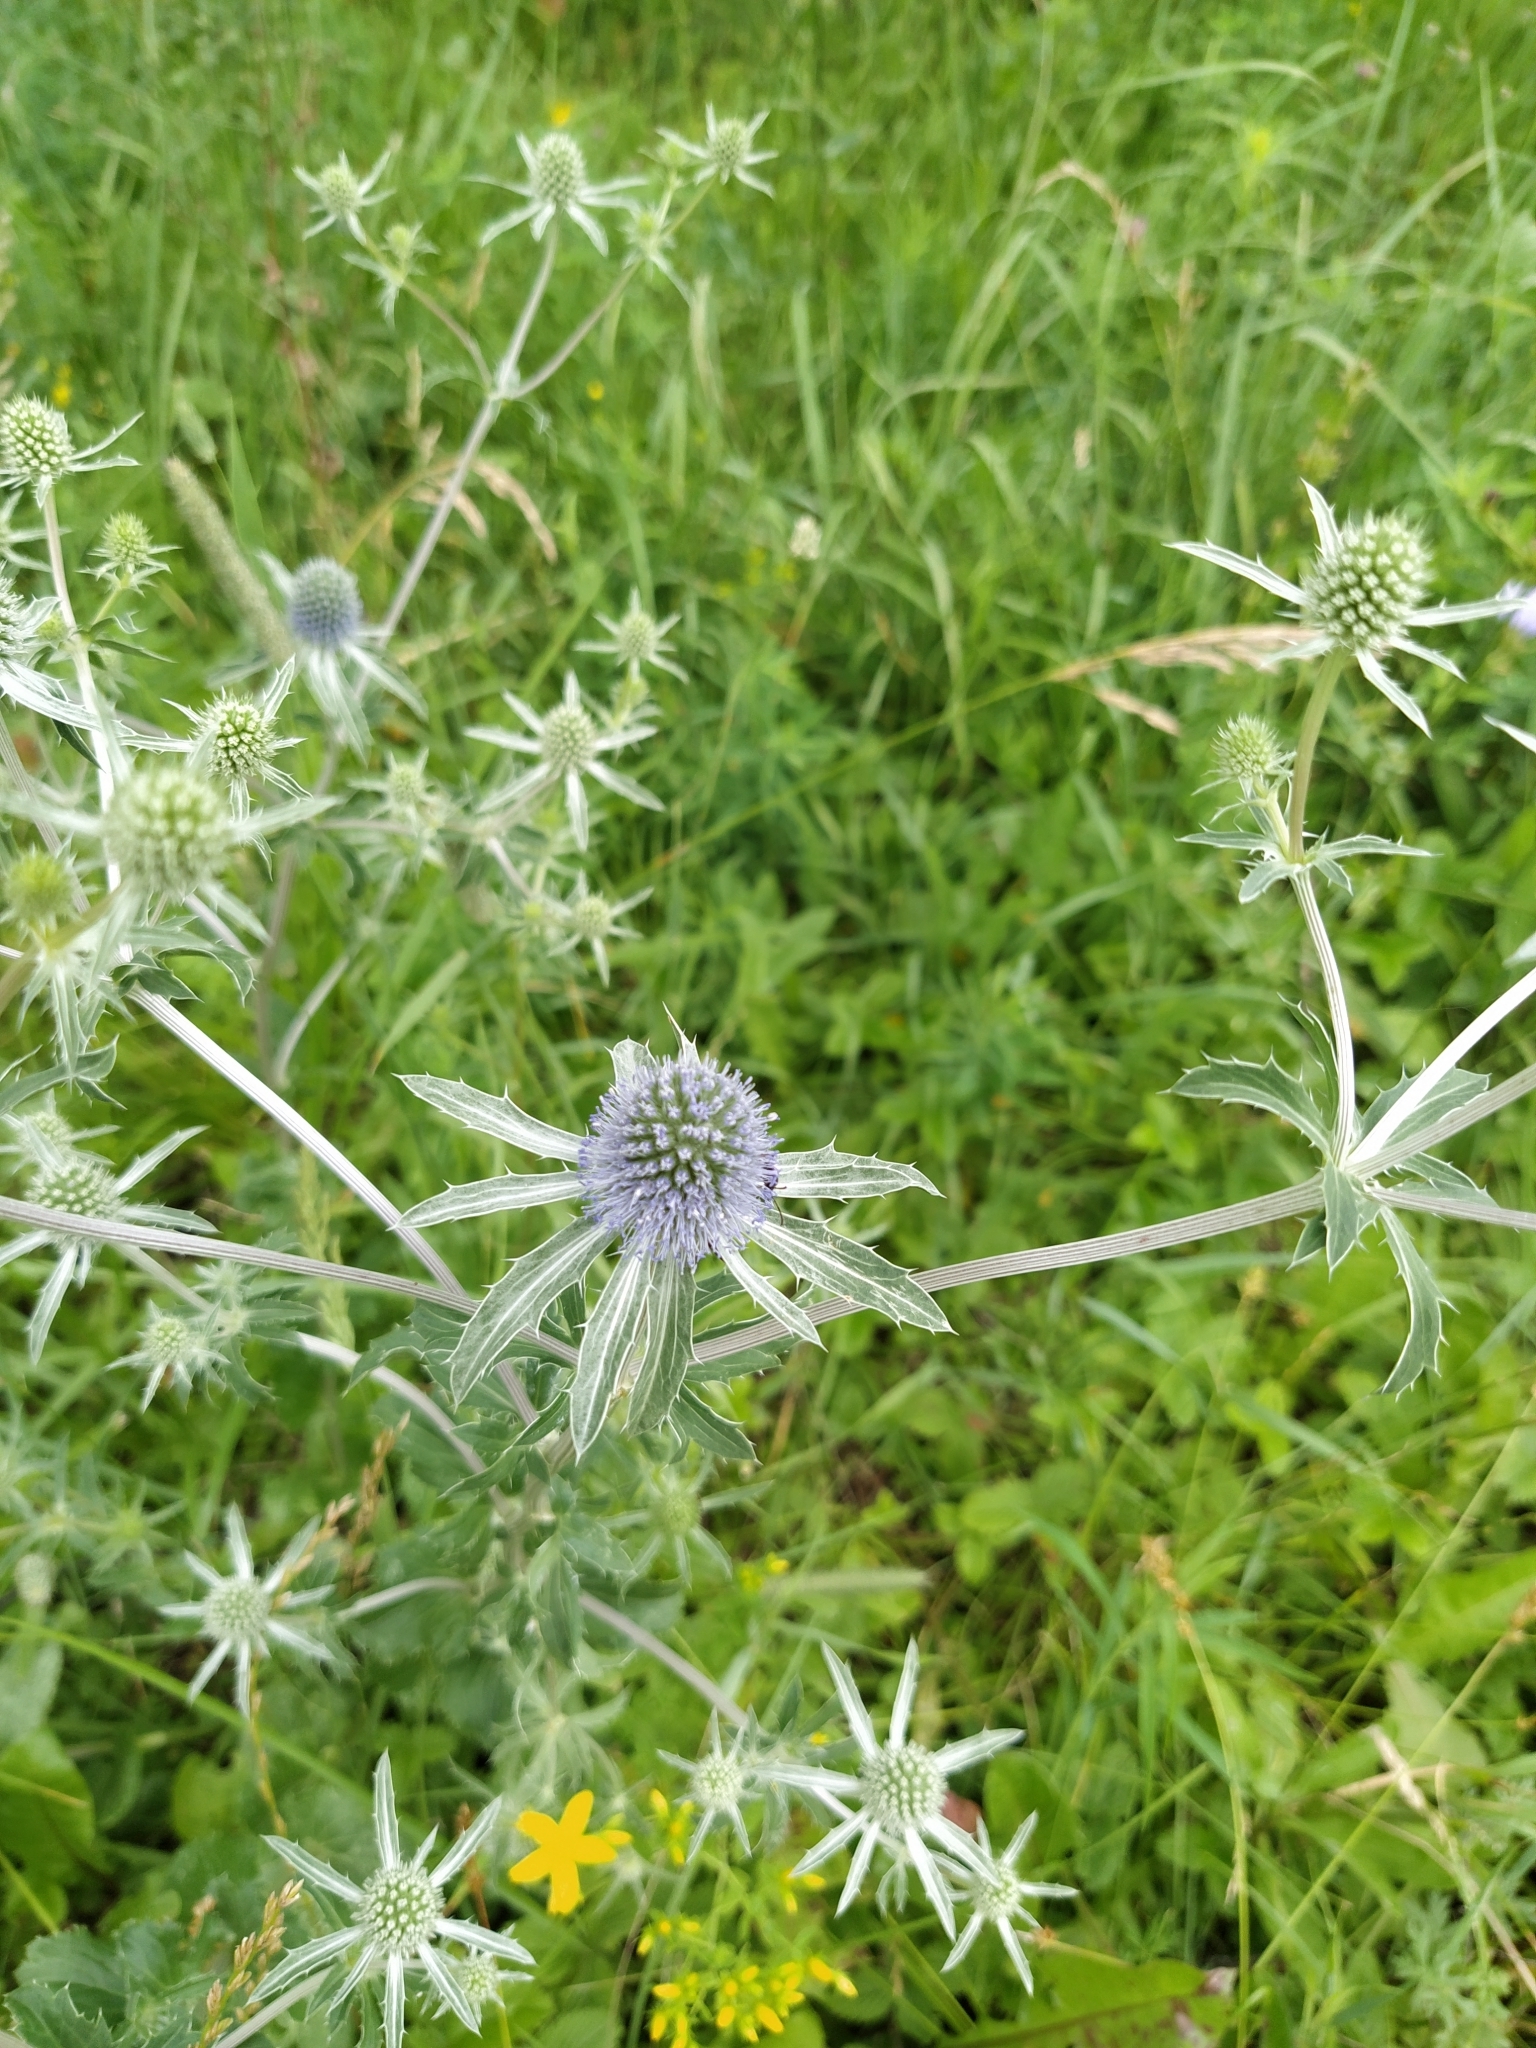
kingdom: Plantae
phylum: Tracheophyta
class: Magnoliopsida
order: Apiales
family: Apiaceae
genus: Eryngium
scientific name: Eryngium planum
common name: Blue eryngo
